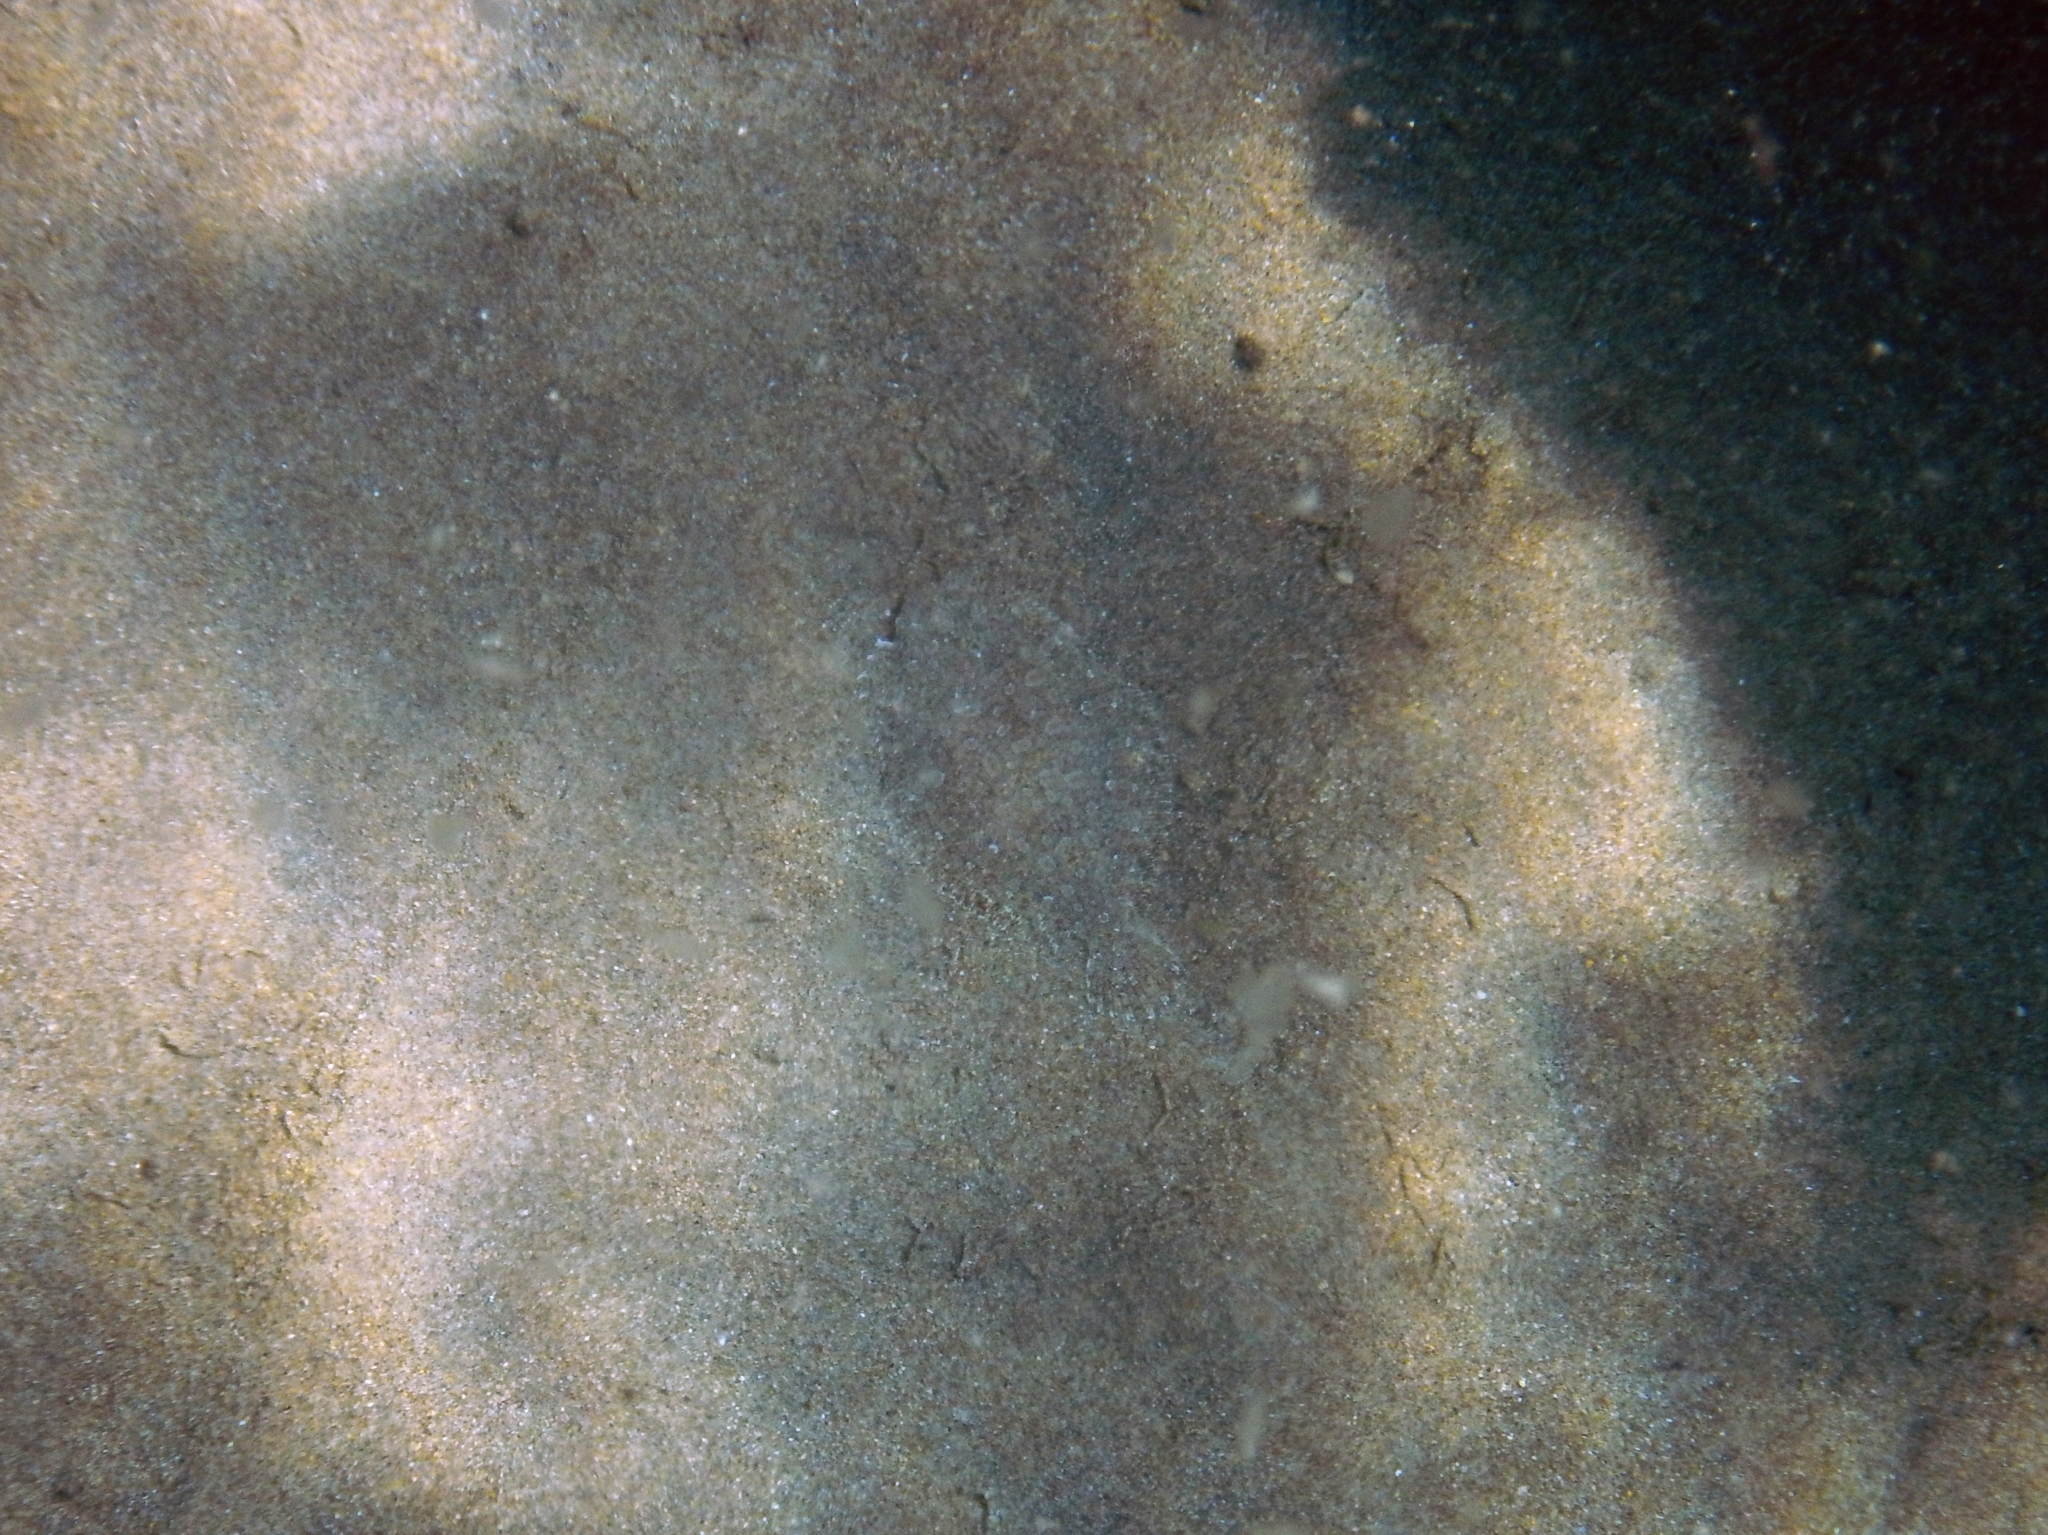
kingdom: Animalia
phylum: Chordata
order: Pleuronectiformes
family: Bothidae
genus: Bothus
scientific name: Bothus podas
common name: Wide-eyed flounder
